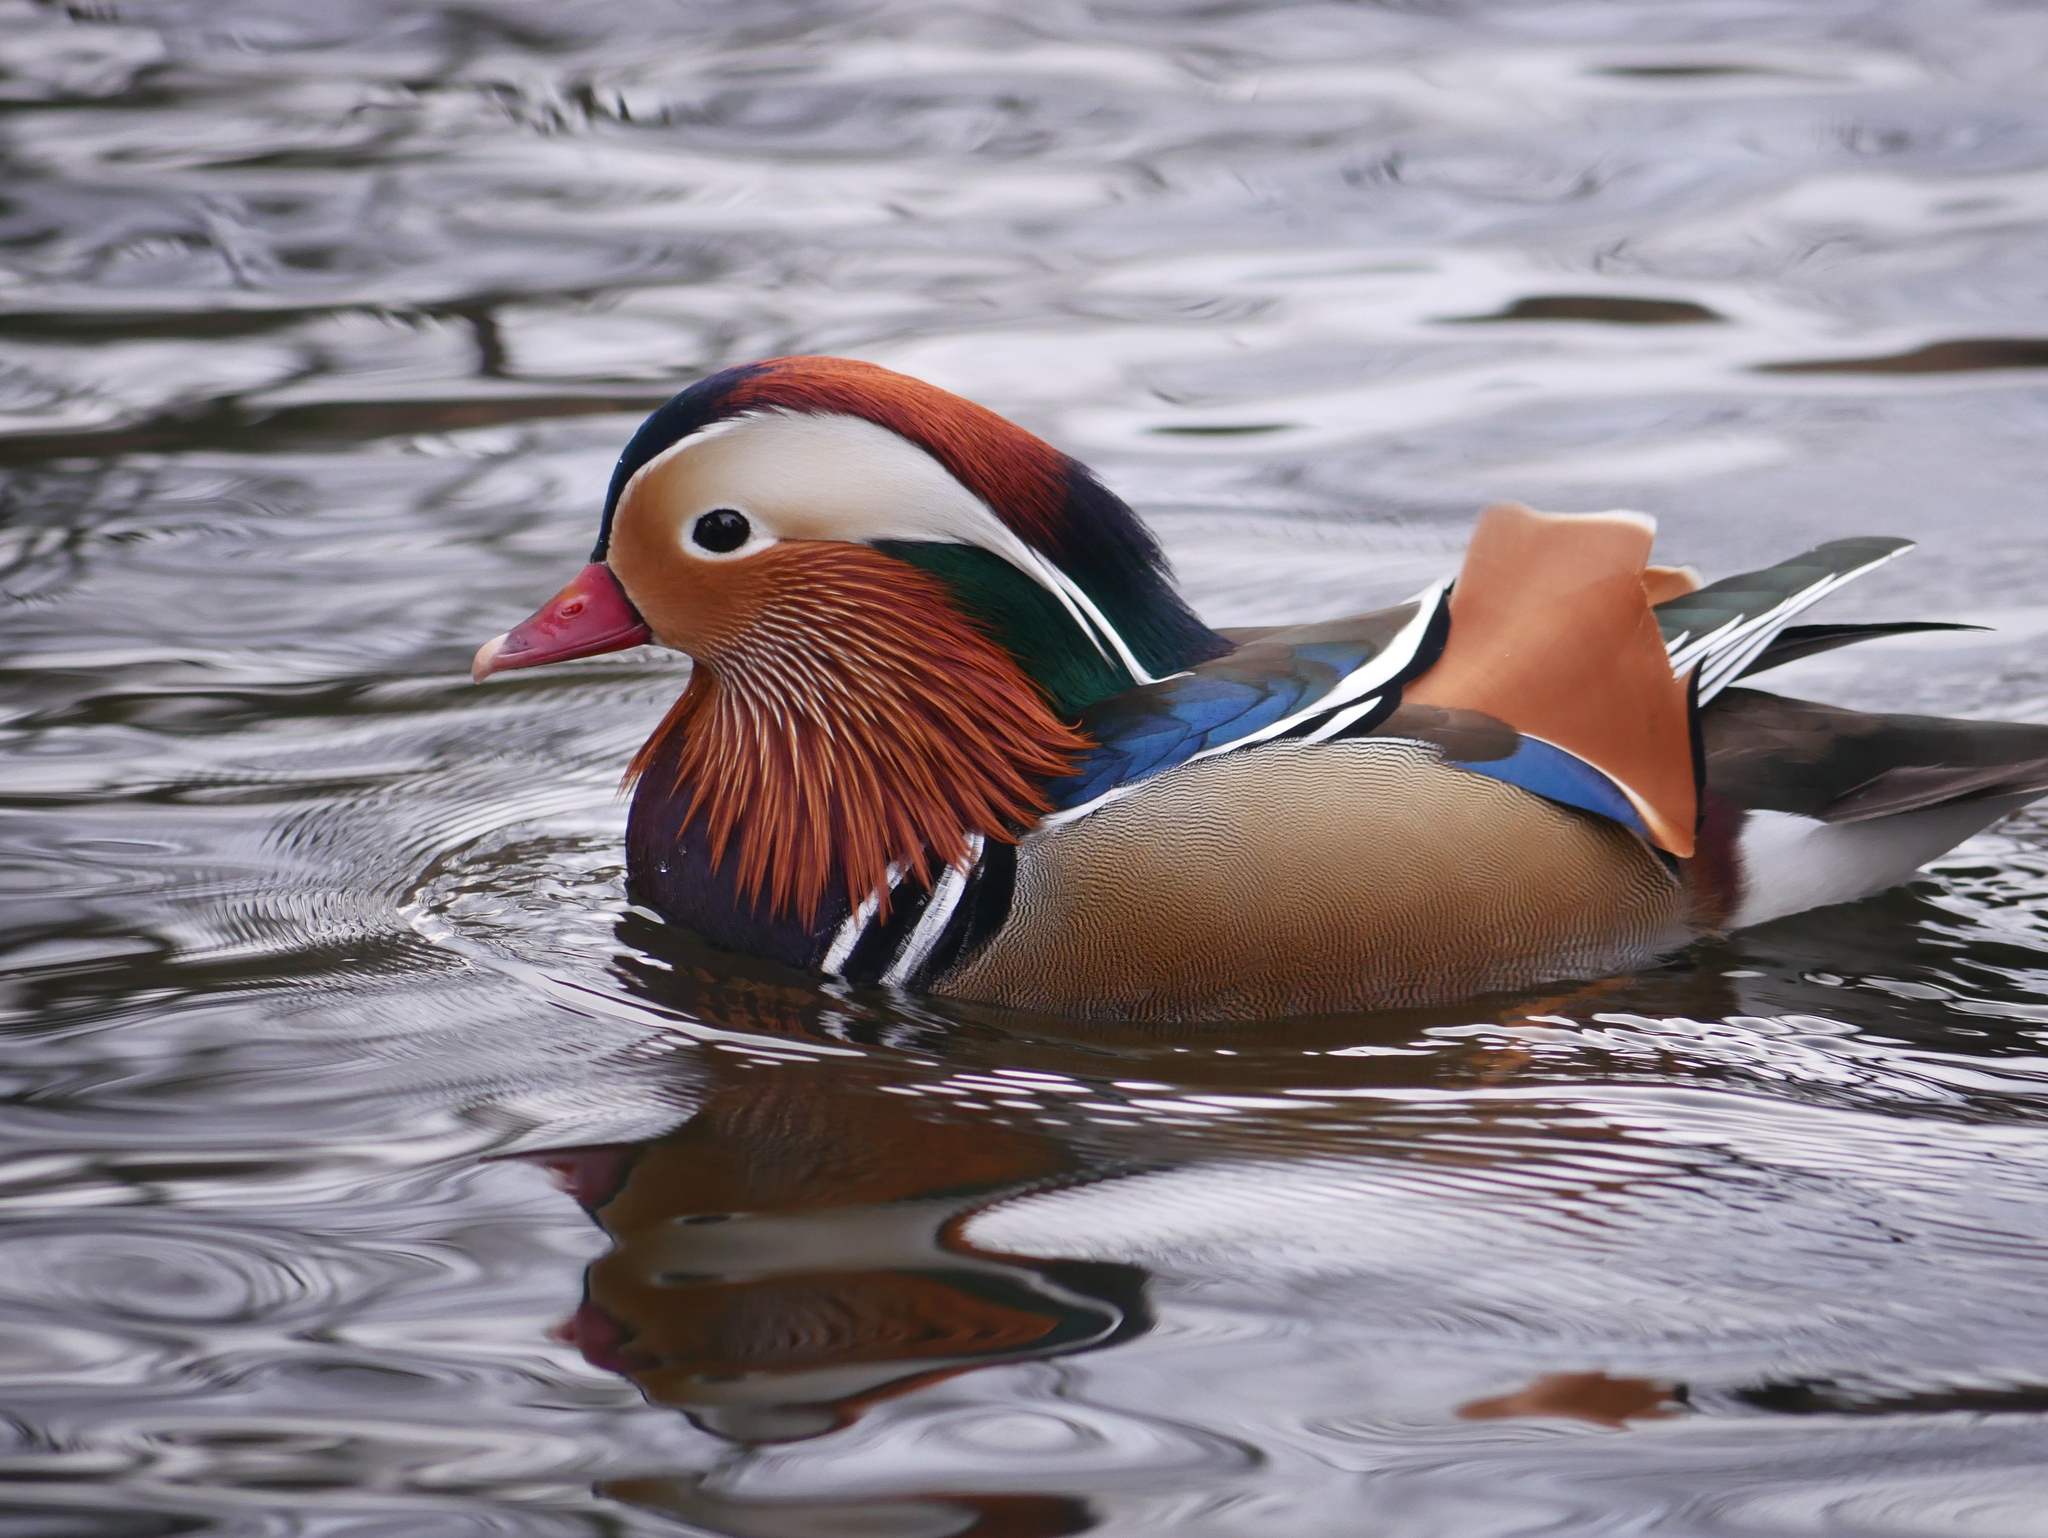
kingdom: Animalia
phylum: Chordata
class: Aves
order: Anseriformes
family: Anatidae
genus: Aix
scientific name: Aix galericulata
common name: Mandarin duck
